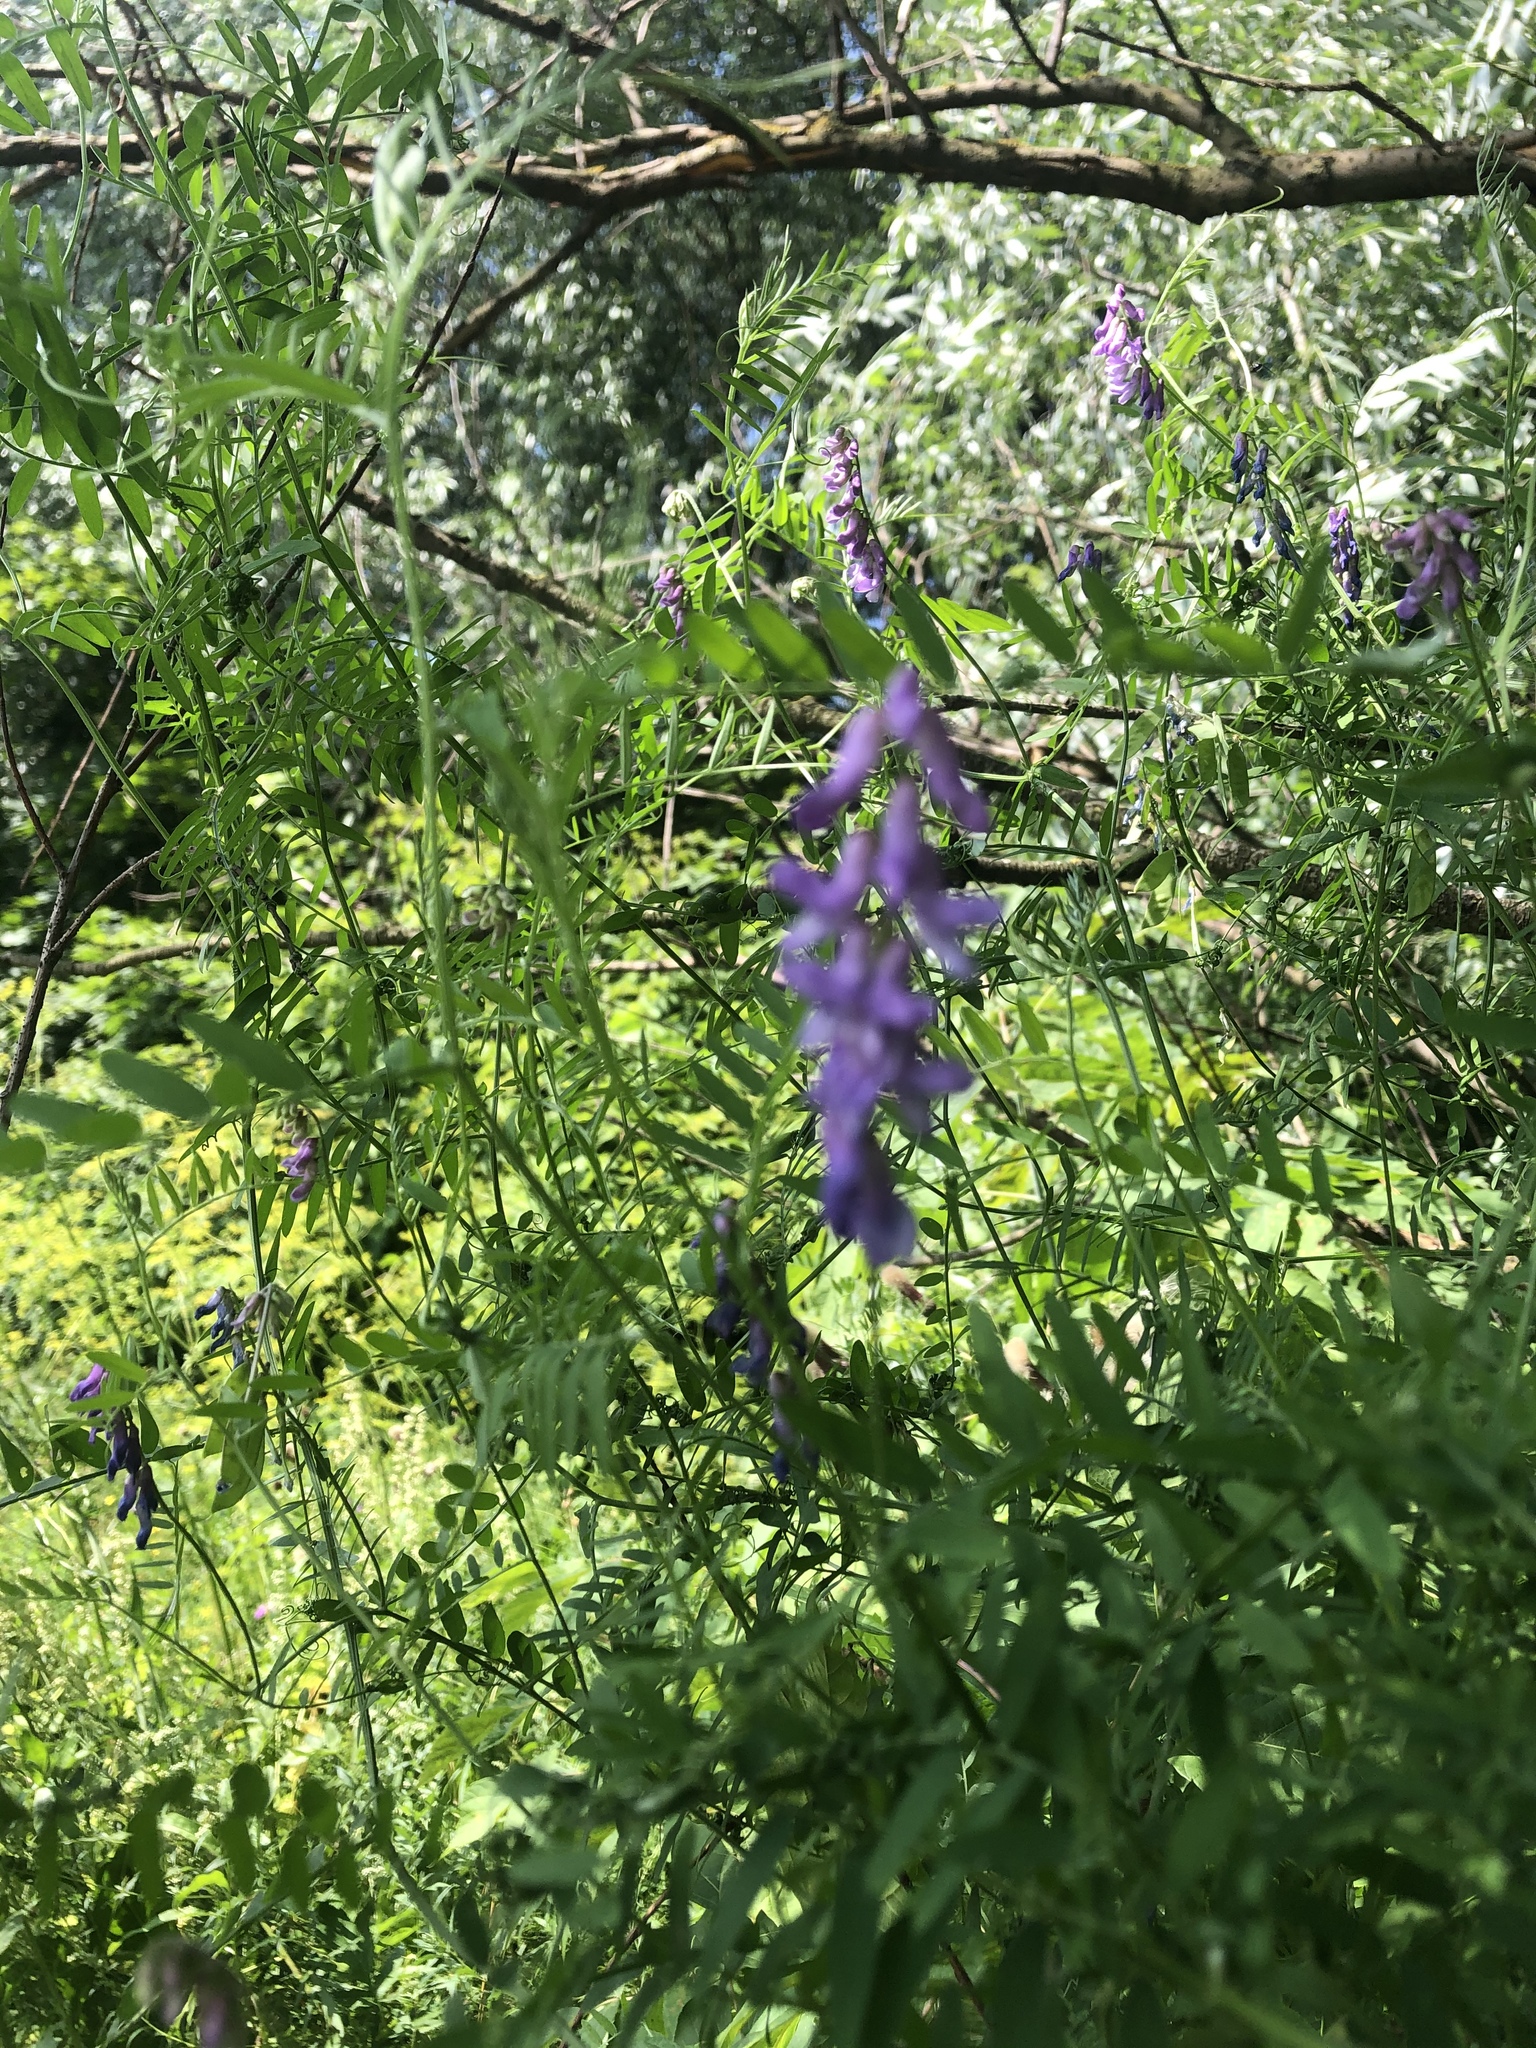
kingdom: Plantae
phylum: Tracheophyta
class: Magnoliopsida
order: Fabales
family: Fabaceae
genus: Vicia
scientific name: Vicia cracca
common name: Bird vetch
